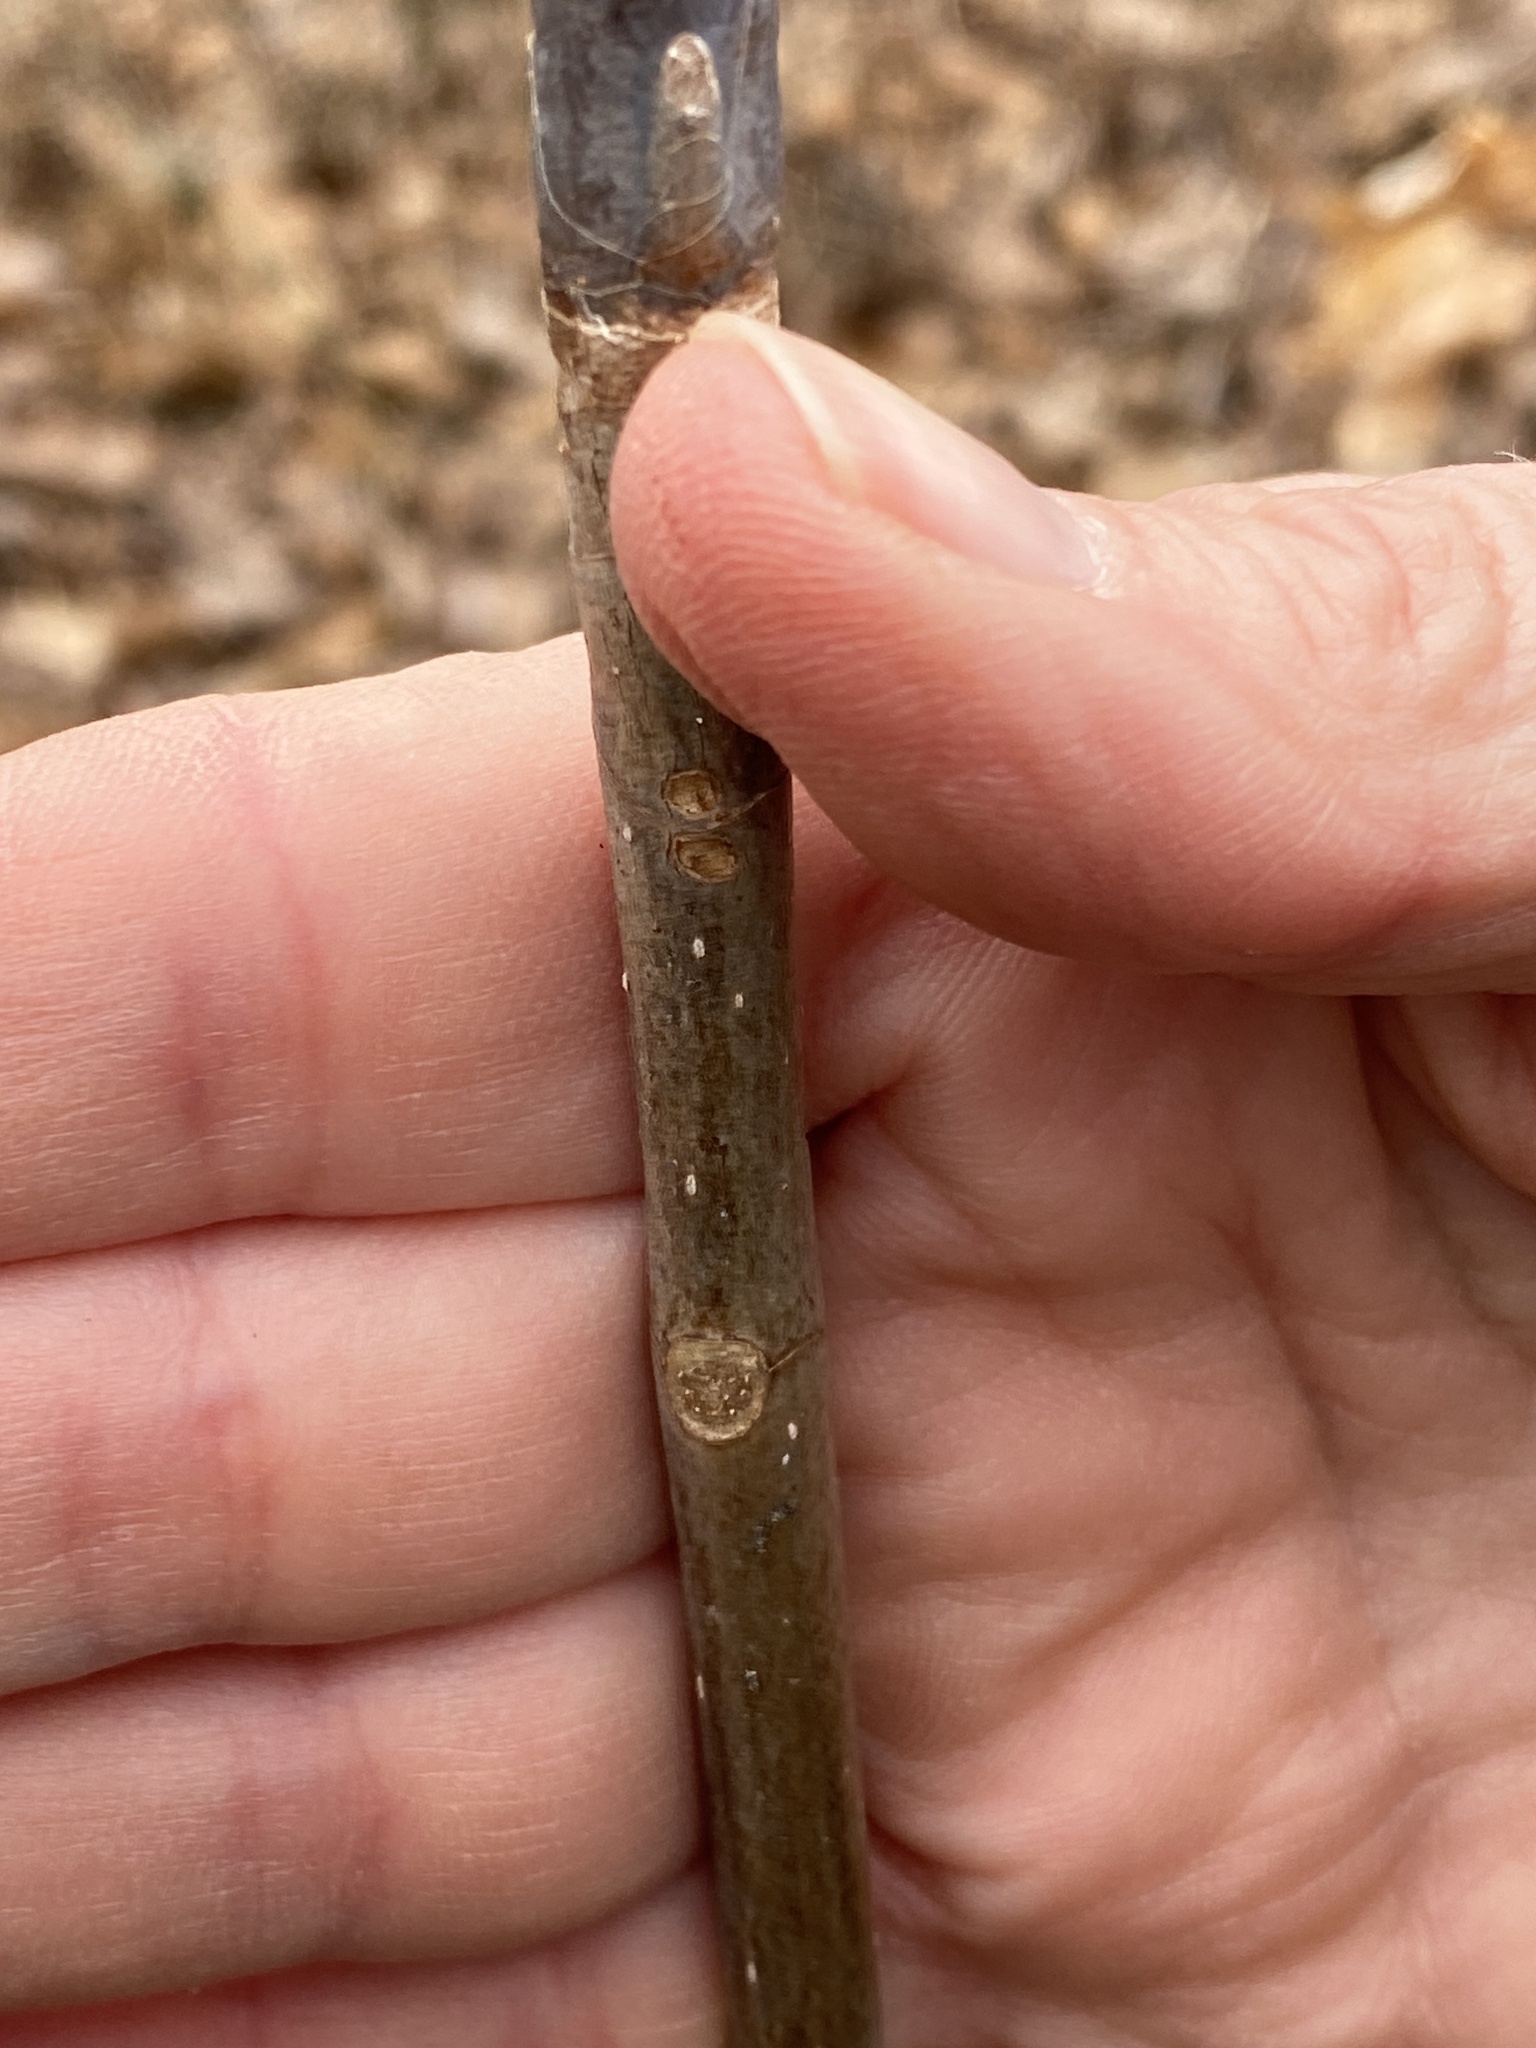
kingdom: Plantae
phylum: Tracheophyta
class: Magnoliopsida
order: Magnoliales
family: Magnoliaceae
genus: Magnolia
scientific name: Magnolia tripetala
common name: Umbrella magnolia
